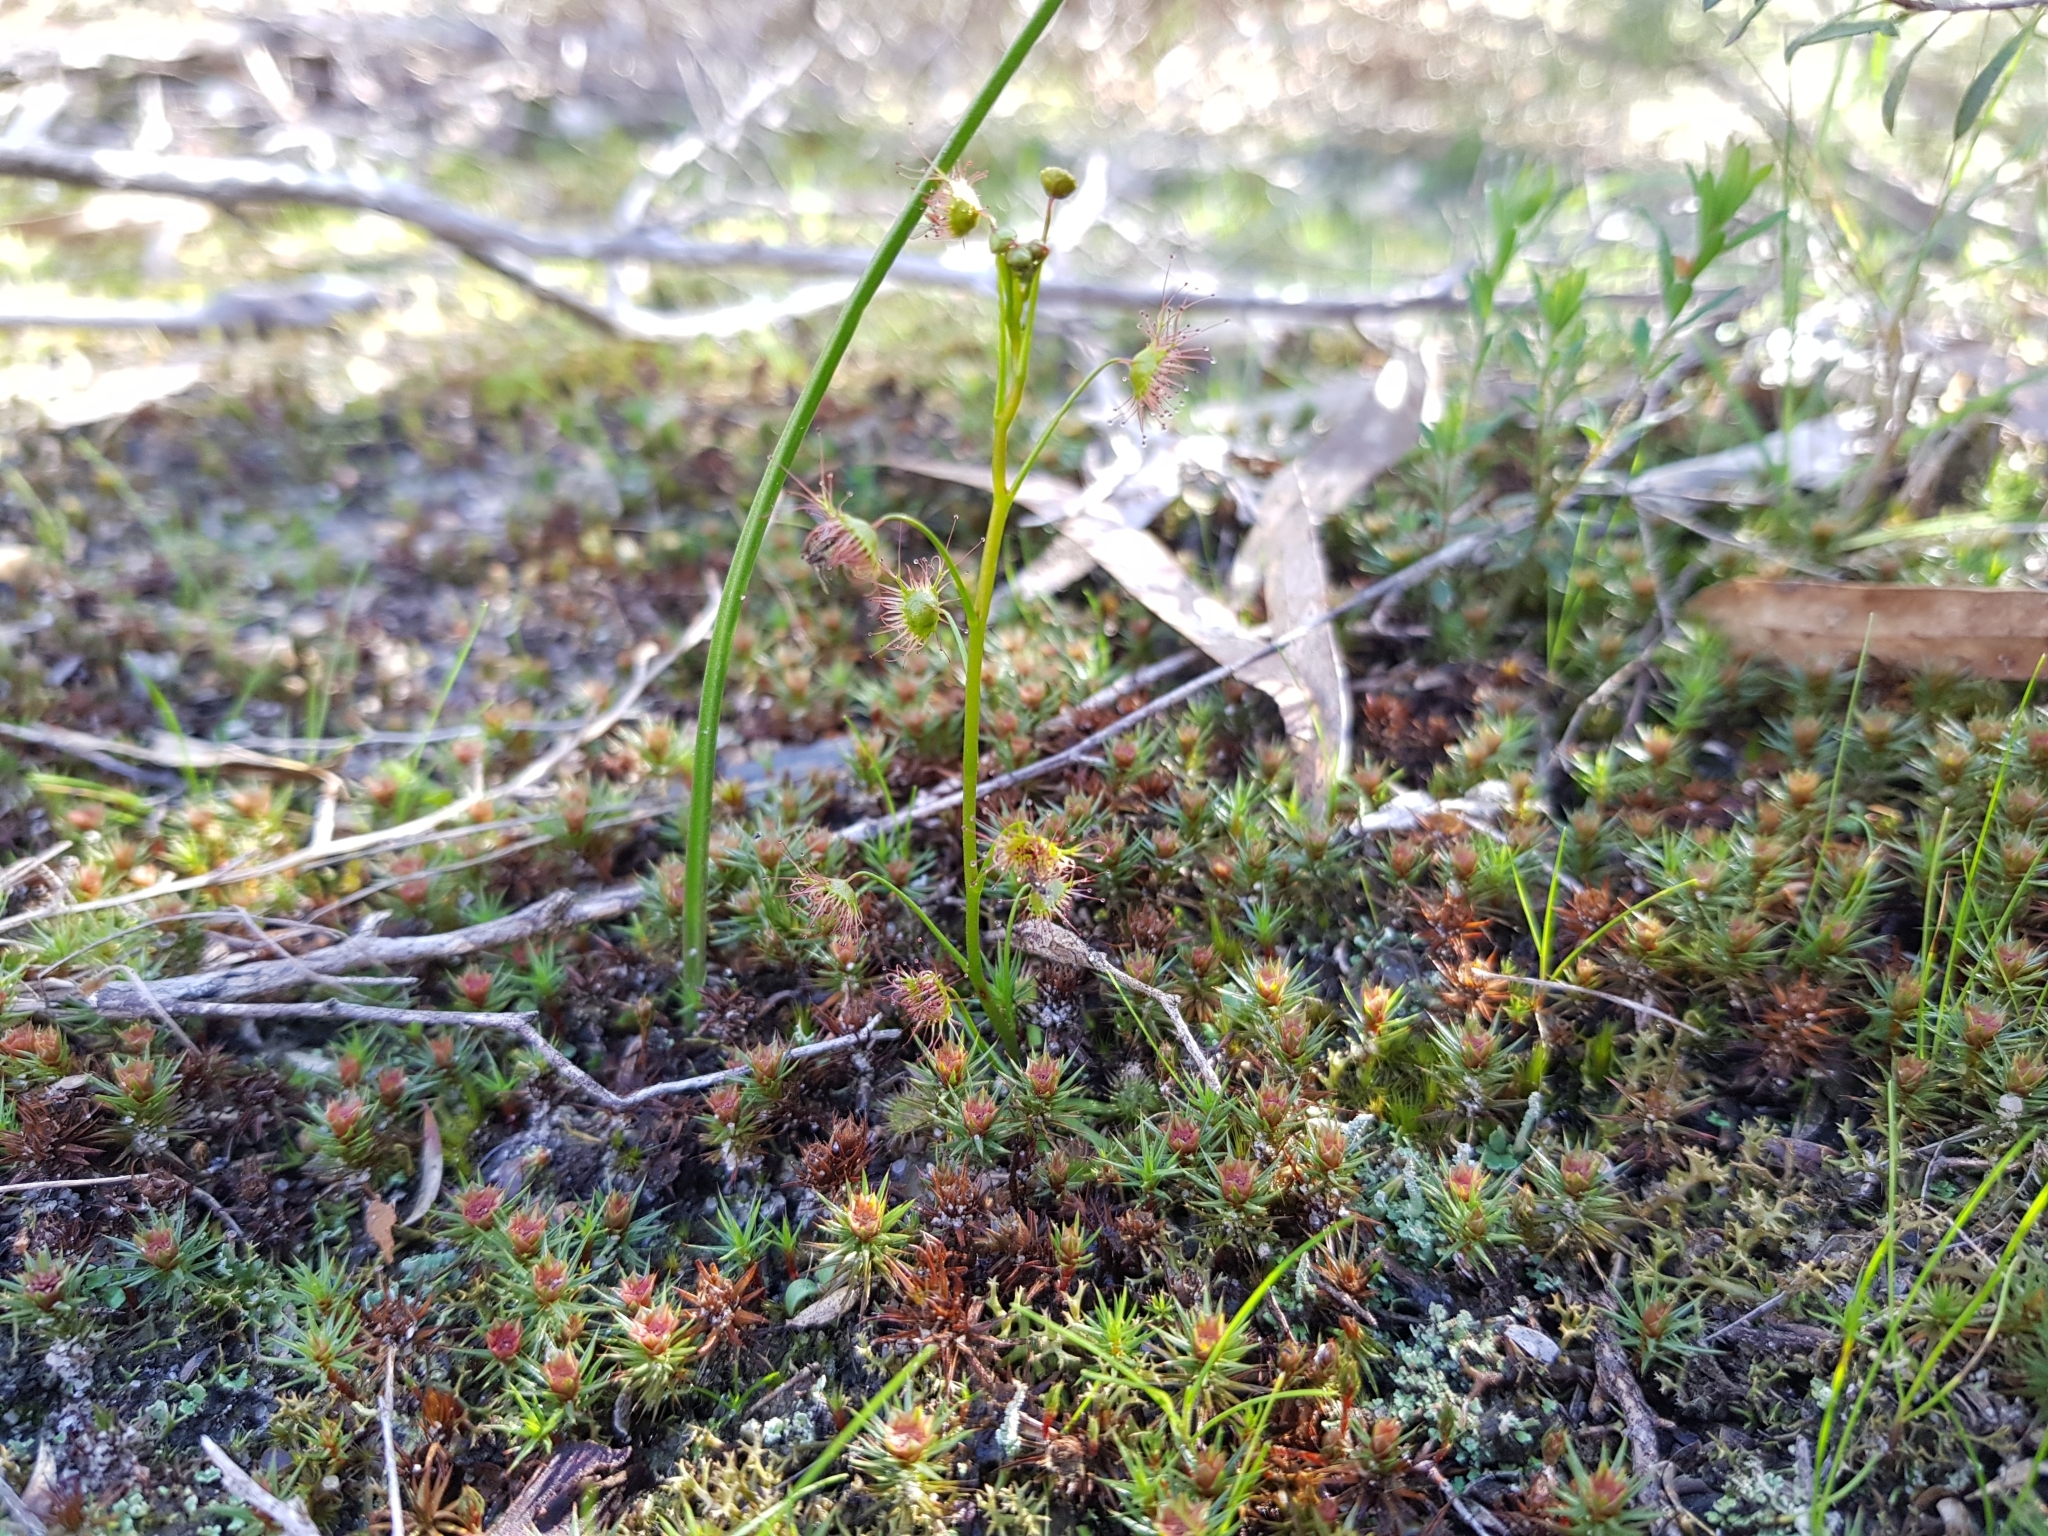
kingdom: Plantae
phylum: Tracheophyta
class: Magnoliopsida
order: Caryophyllales
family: Droseraceae
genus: Drosera
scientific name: Drosera peltata
